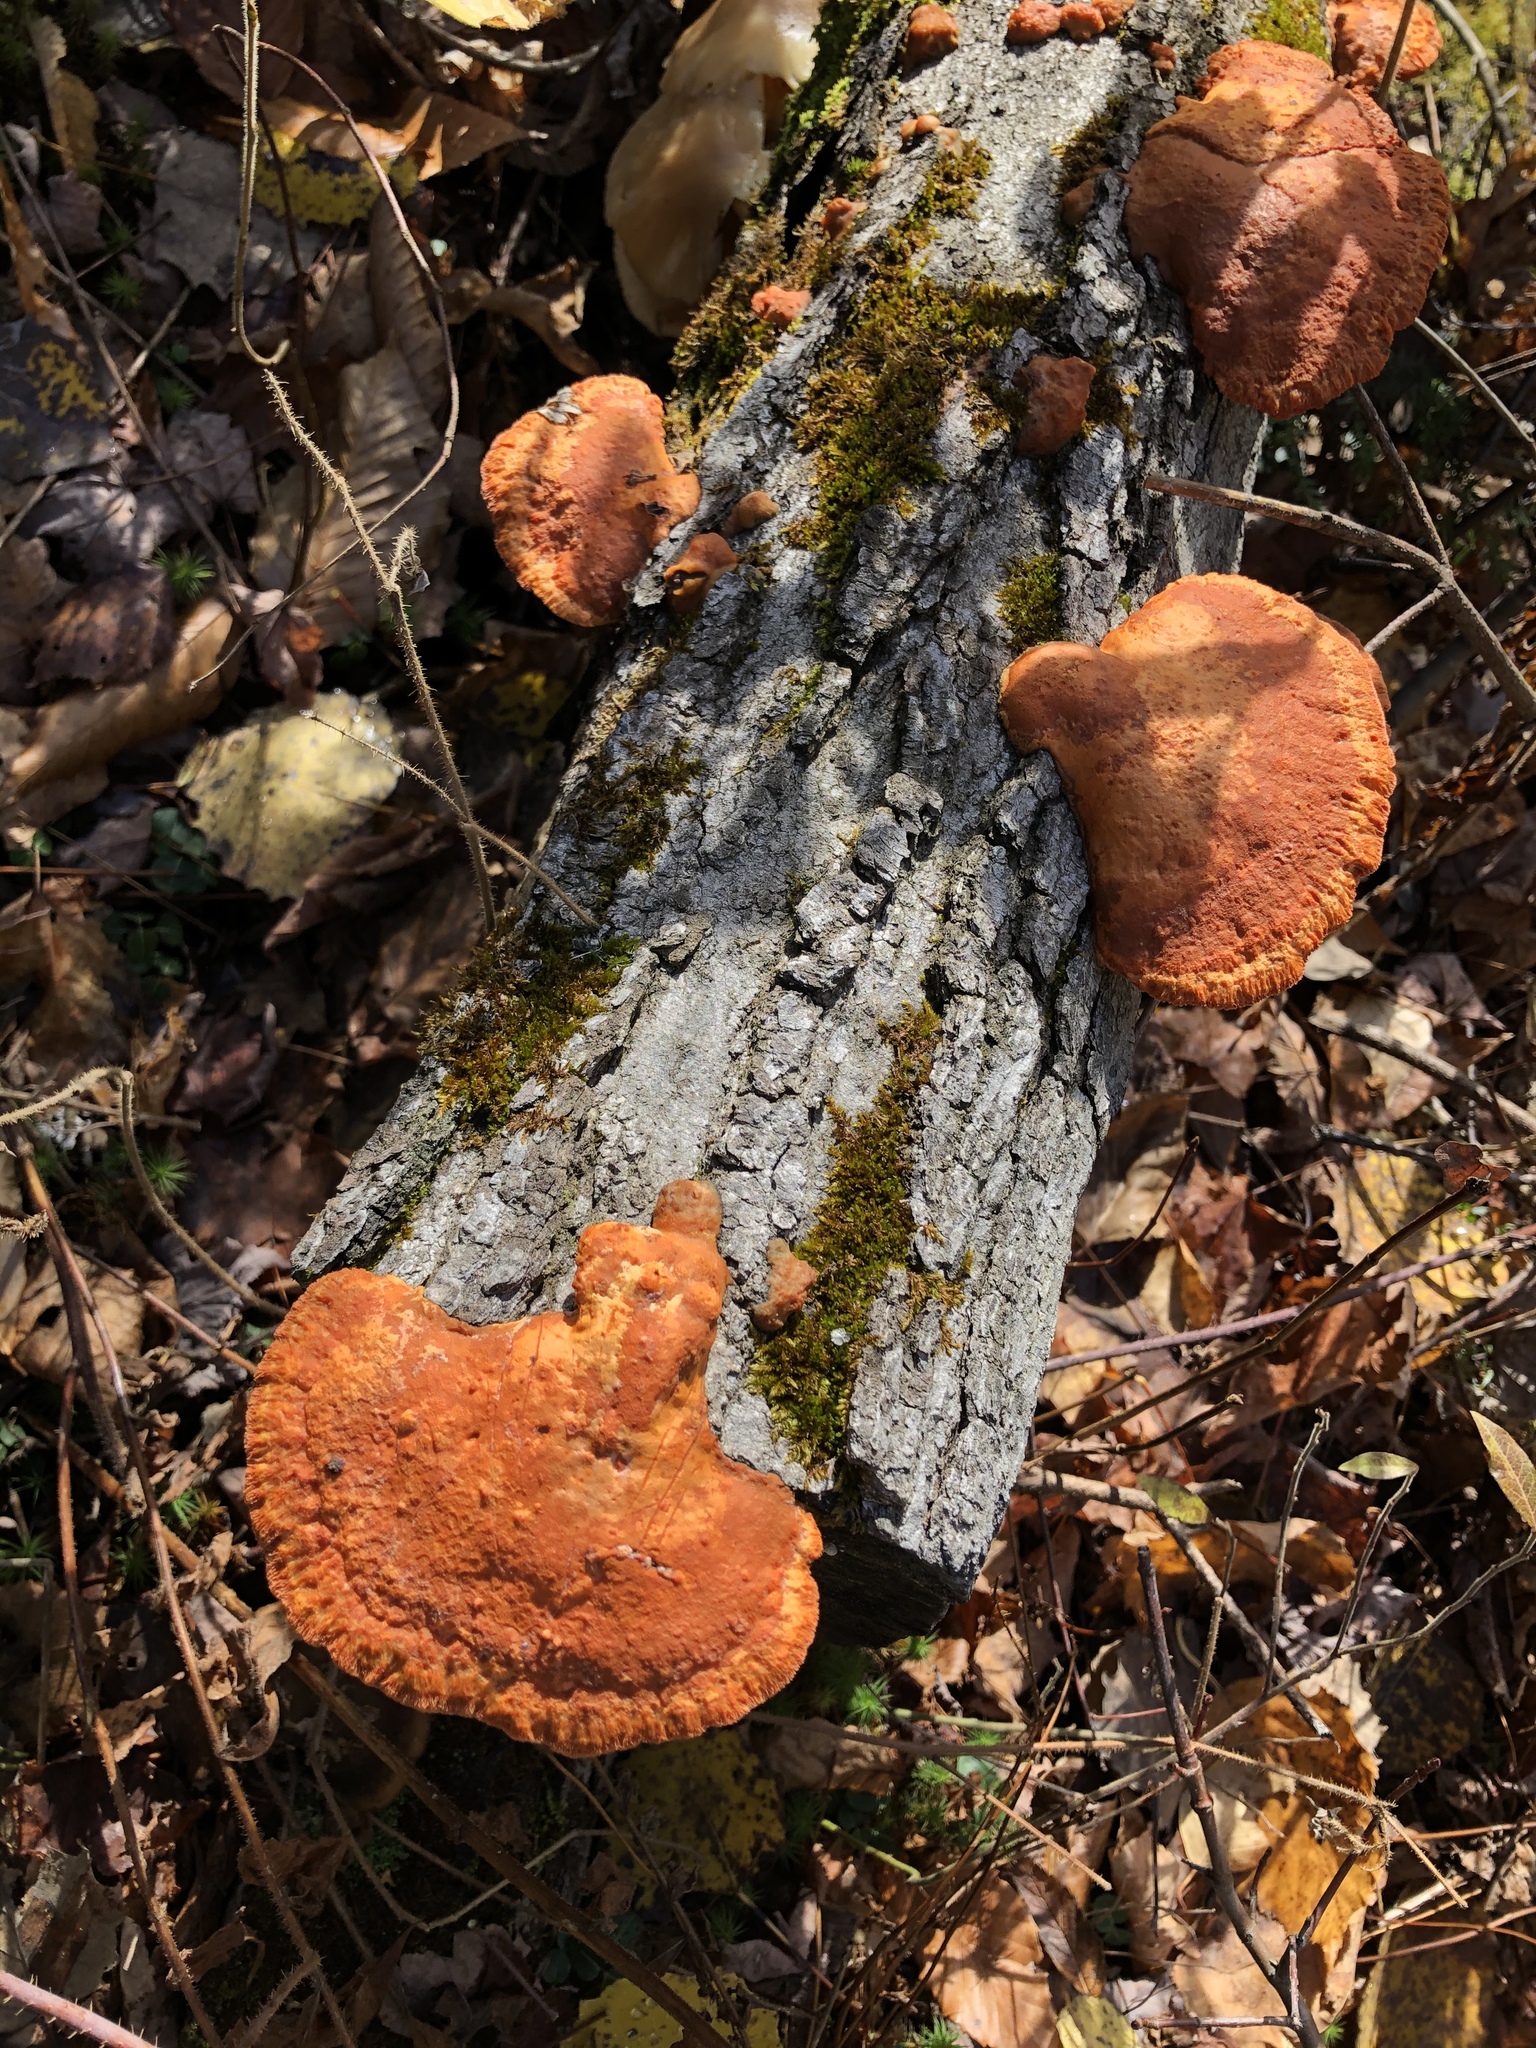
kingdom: Fungi
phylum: Basidiomycota
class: Agaricomycetes
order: Polyporales
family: Polyporaceae
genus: Trametes
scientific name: Trametes cinnabarina
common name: Northern cinnabar polypore
